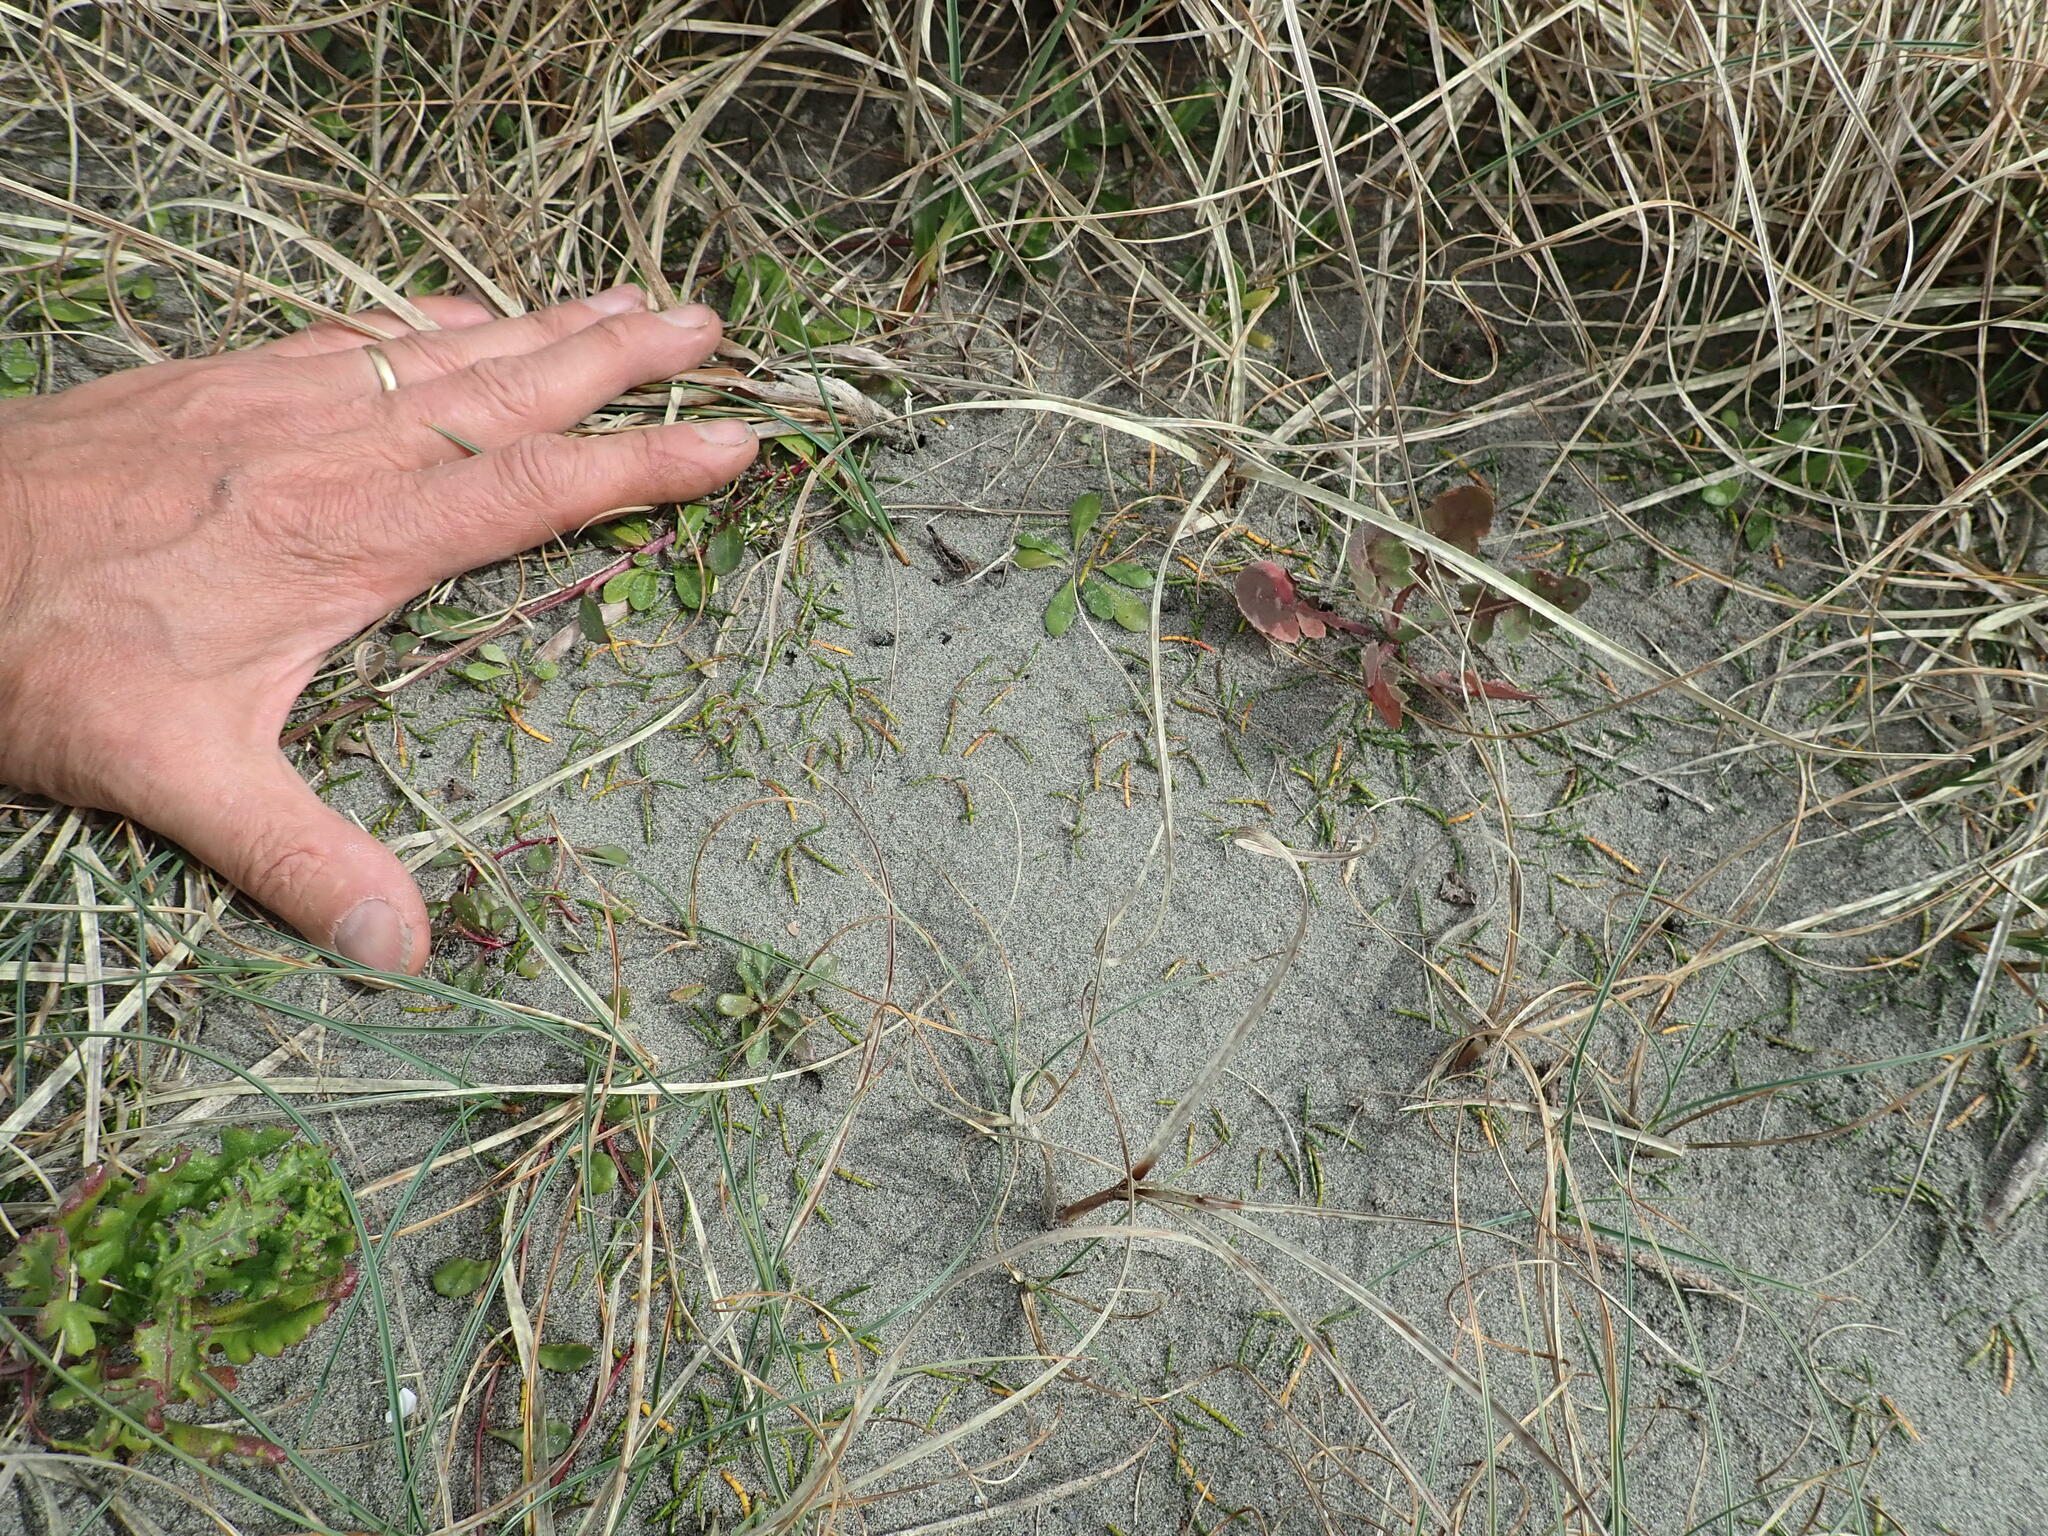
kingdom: Plantae
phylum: Tracheophyta
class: Magnoliopsida
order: Apiales
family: Apiaceae
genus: Lilaeopsis
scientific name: Lilaeopsis novae-zelandiae
